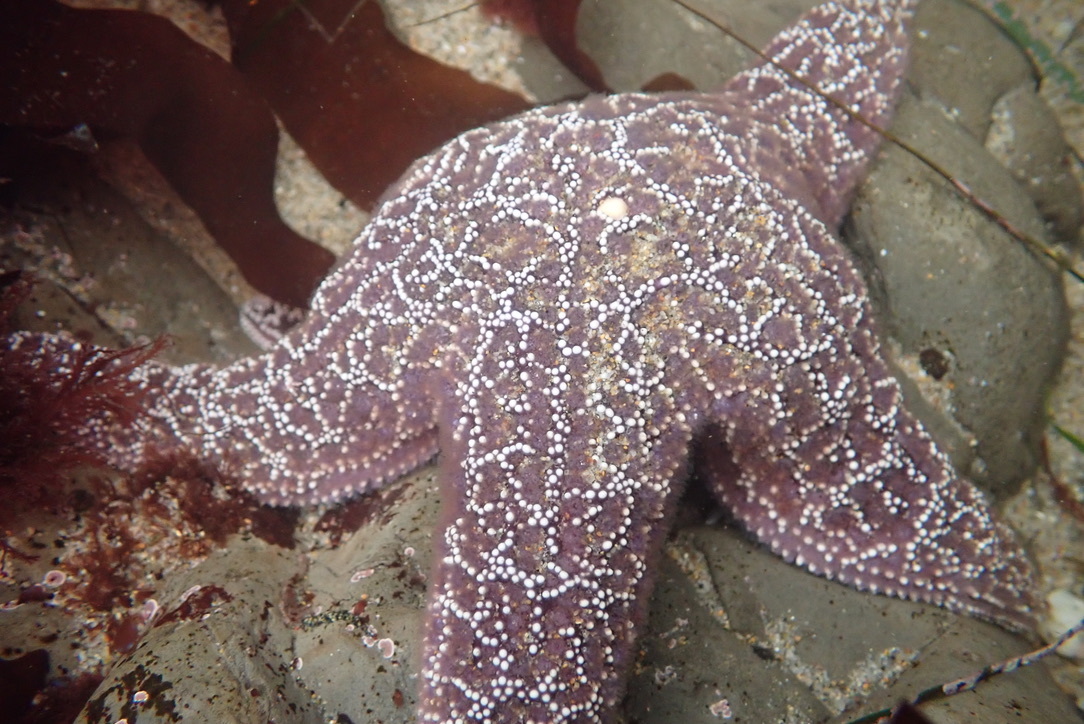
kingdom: Animalia
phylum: Echinodermata
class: Asteroidea
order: Forcipulatida
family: Asteriidae
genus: Pisaster
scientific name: Pisaster ochraceus
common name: Ochre stars
